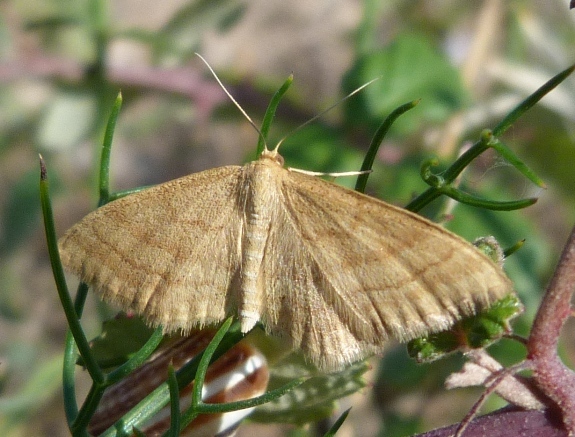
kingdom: Animalia
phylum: Arthropoda
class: Insecta
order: Lepidoptera
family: Geometridae
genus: Idaea
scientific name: Idaea ochrata
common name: Bright wave
